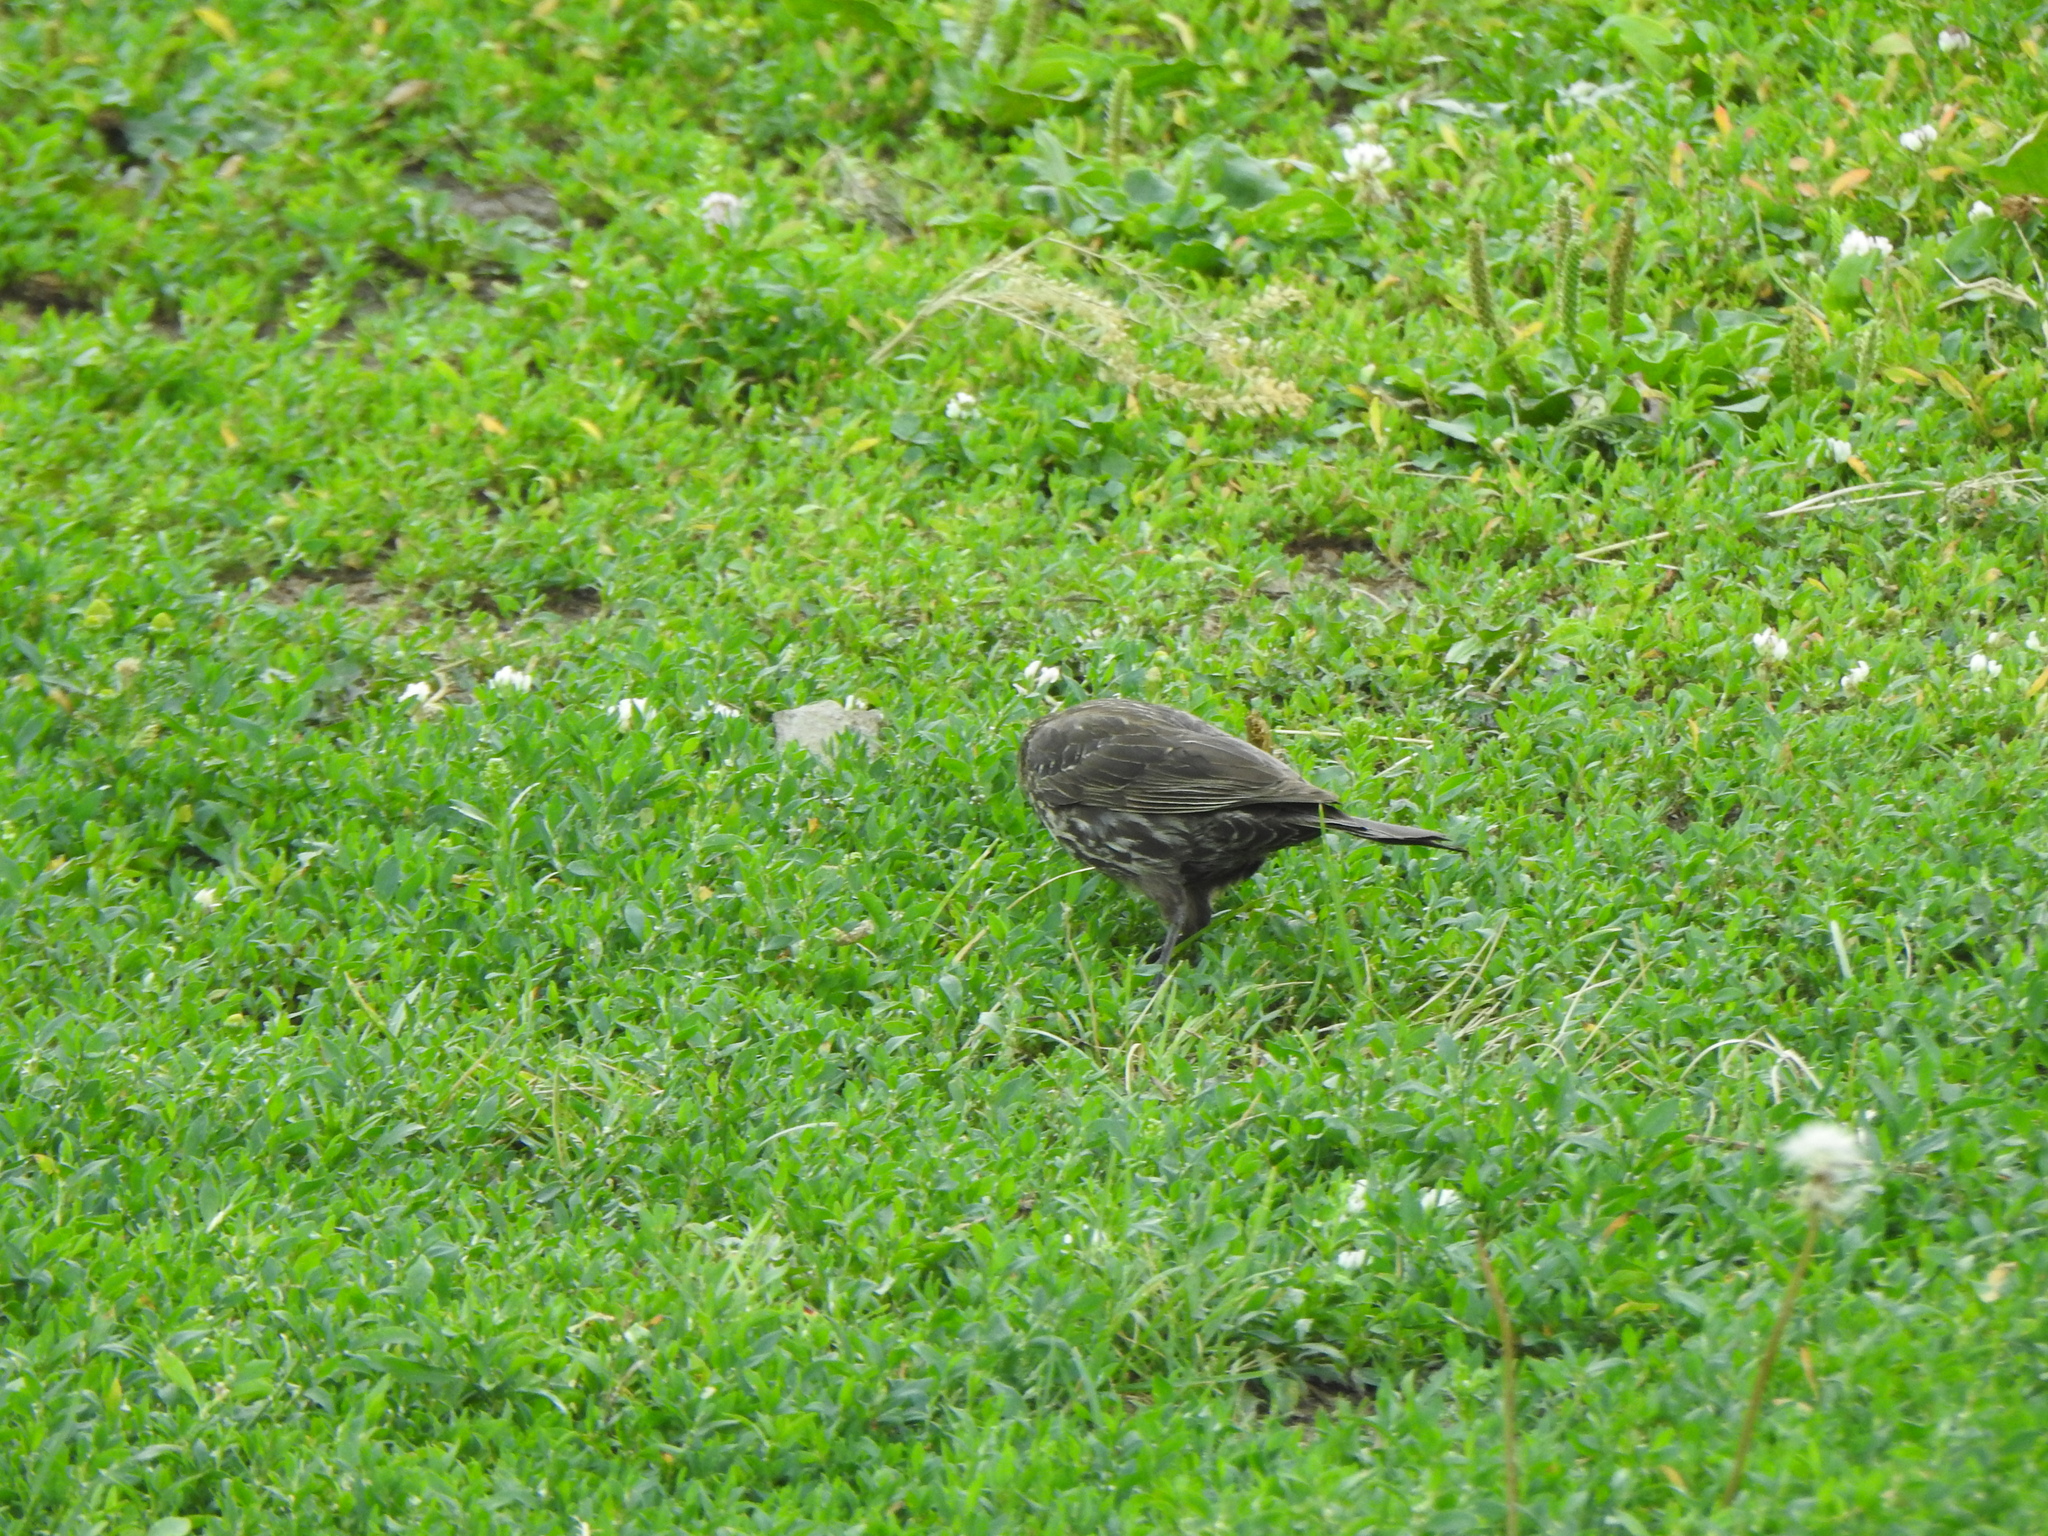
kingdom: Animalia
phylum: Chordata
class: Aves
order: Passeriformes
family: Icteridae
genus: Agelaius
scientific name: Agelaius phoeniceus
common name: Red-winged blackbird
